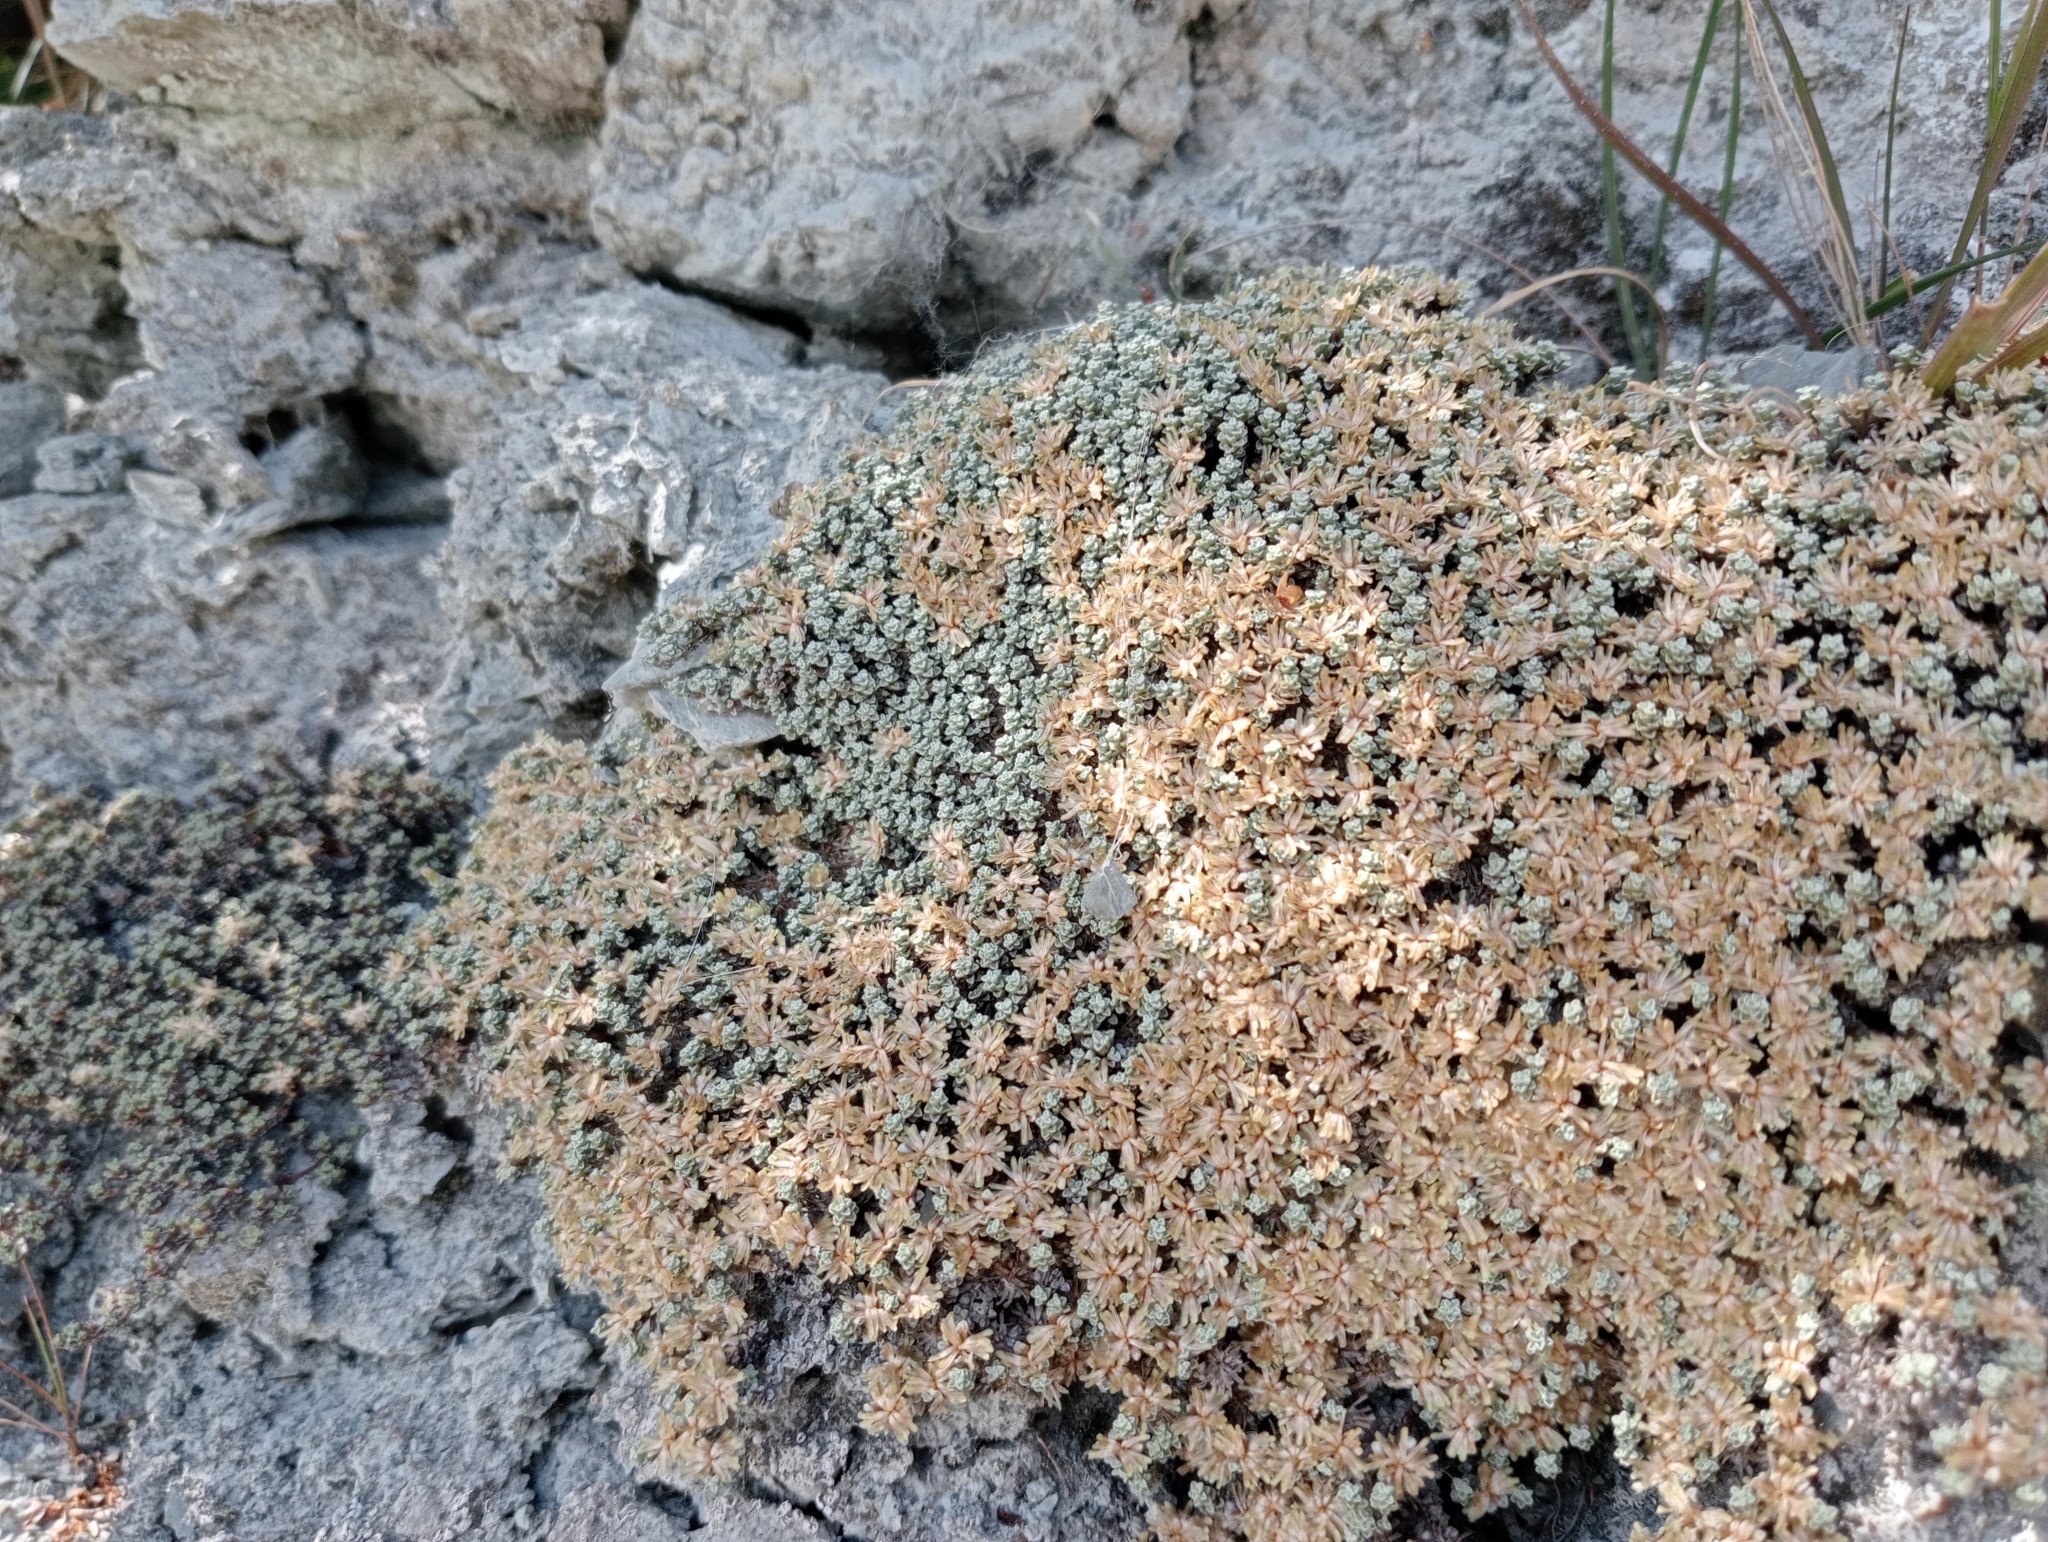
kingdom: Plantae
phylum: Tracheophyta
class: Magnoliopsida
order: Asterales
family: Asteraceae
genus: Raoulia
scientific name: Raoulia australis
